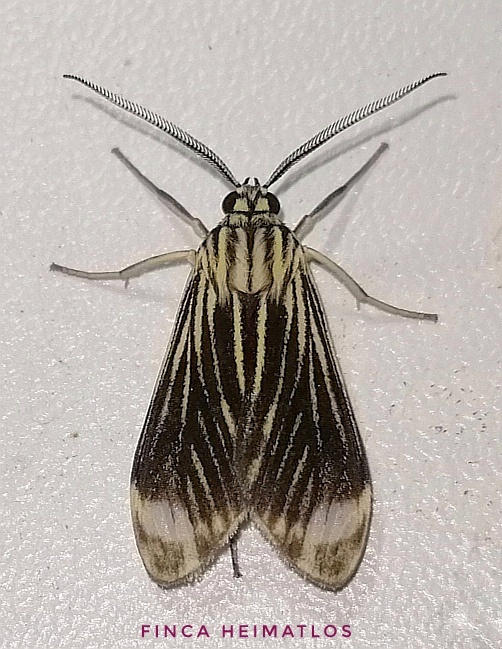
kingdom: Animalia
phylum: Arthropoda
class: Insecta
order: Lepidoptera
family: Erebidae
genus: Hyaleucerea
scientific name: Hyaleucerea costinotata
